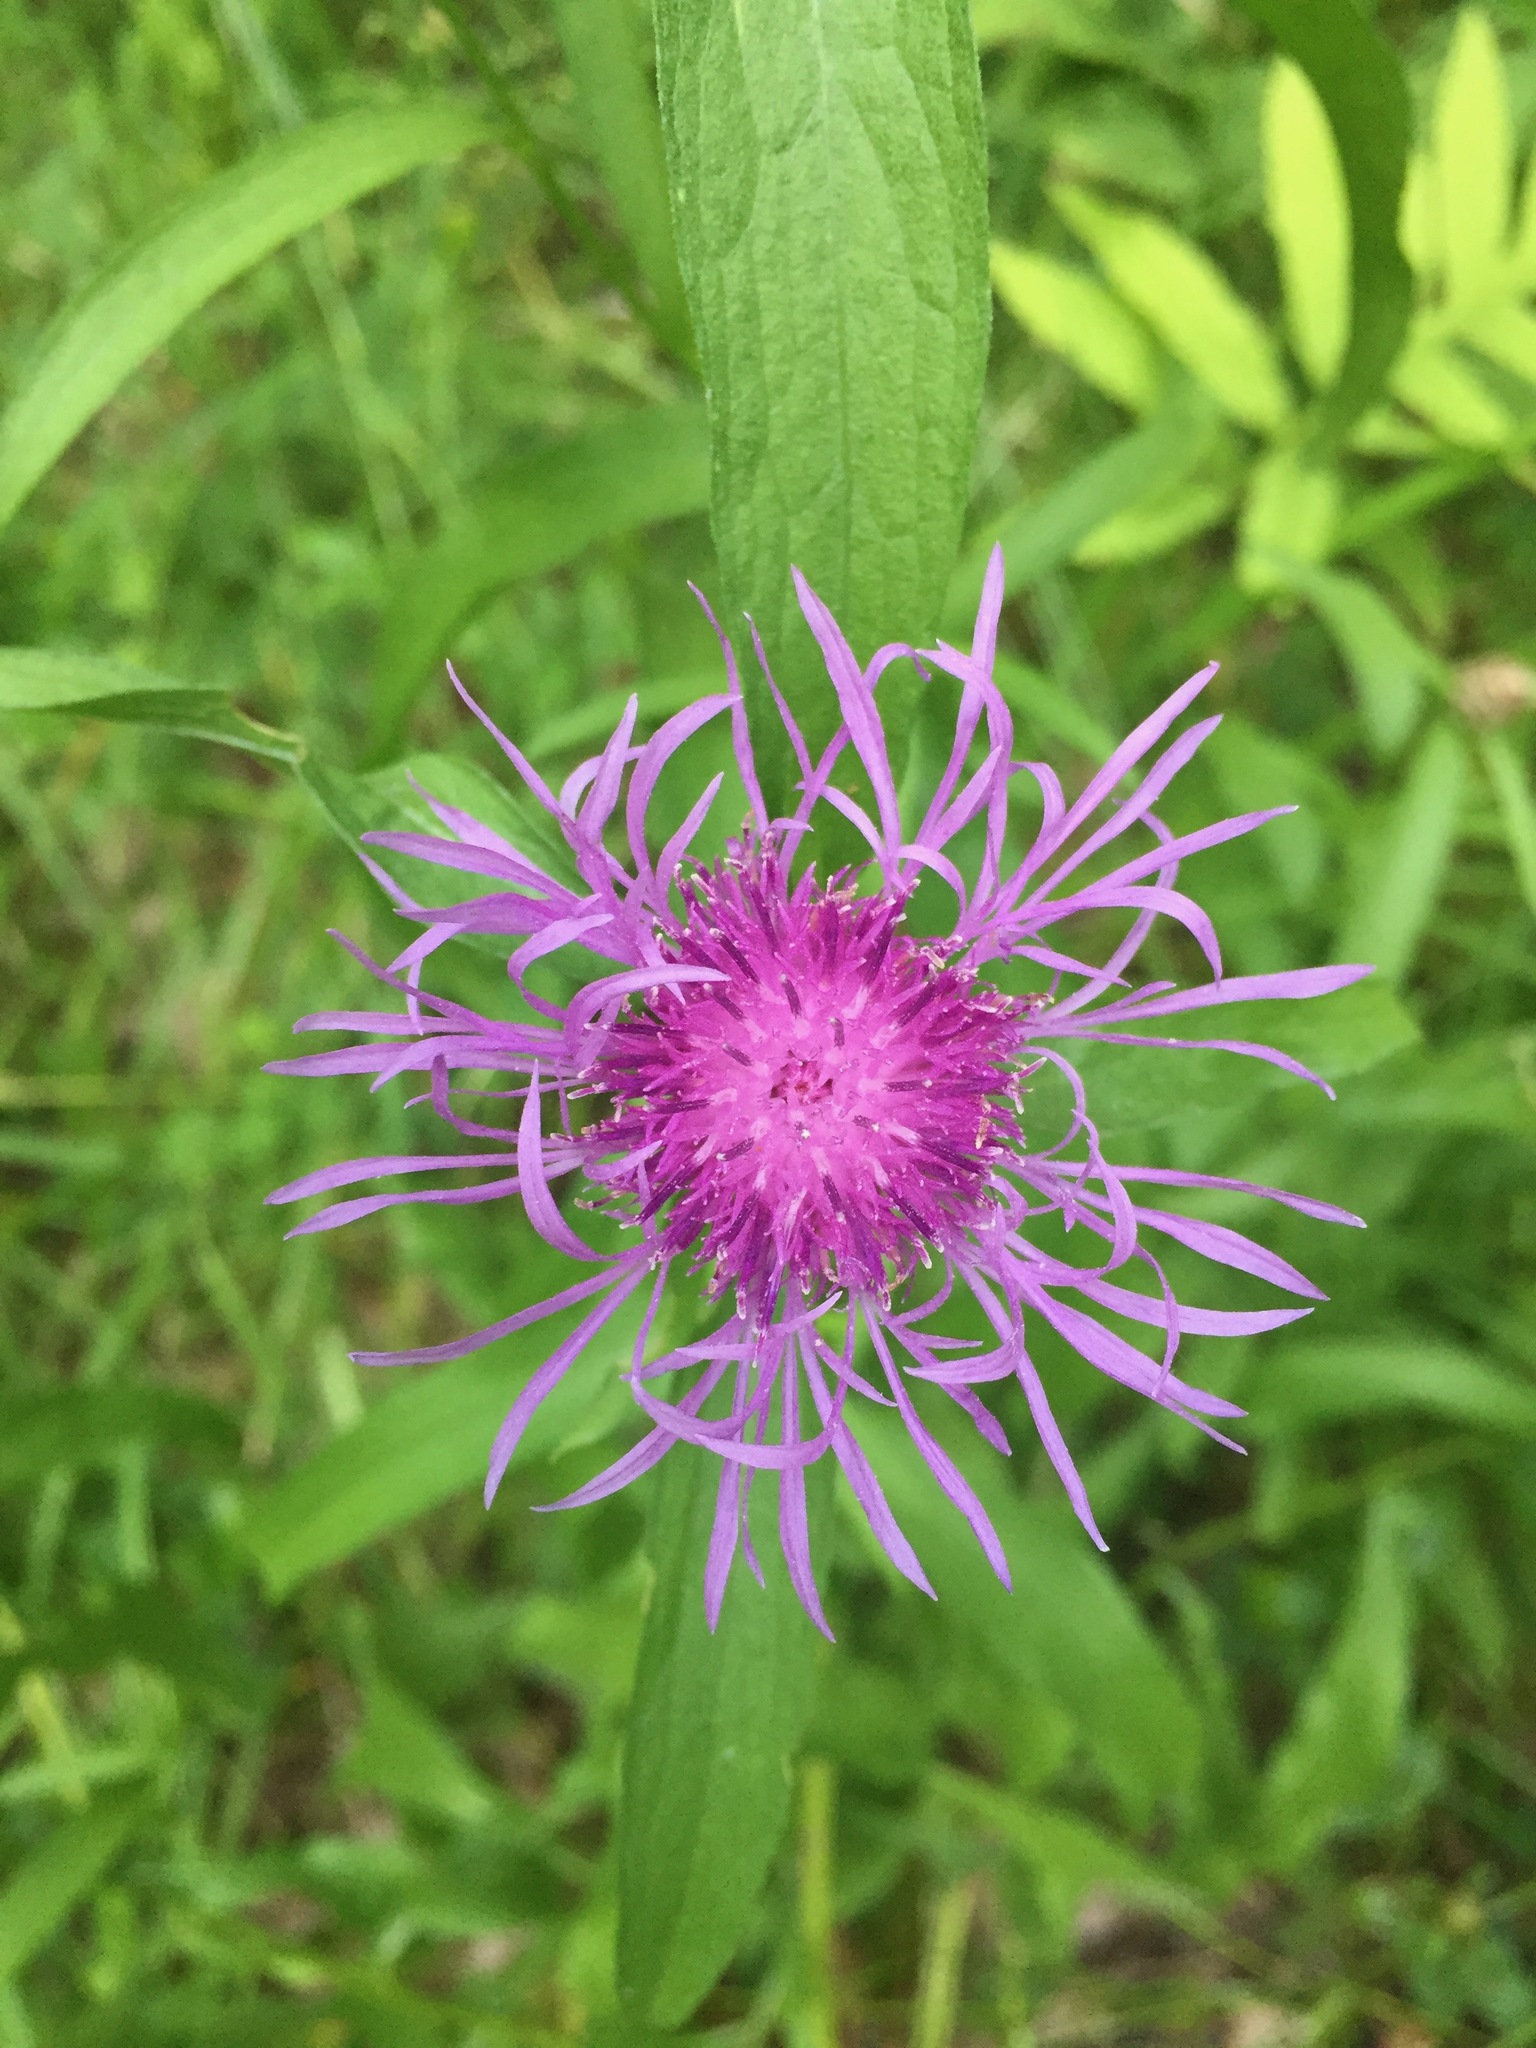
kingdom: Plantae
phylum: Tracheophyta
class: Magnoliopsida
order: Asterales
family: Asteraceae
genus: Centaurea
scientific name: Centaurea jacea
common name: Brown knapweed
